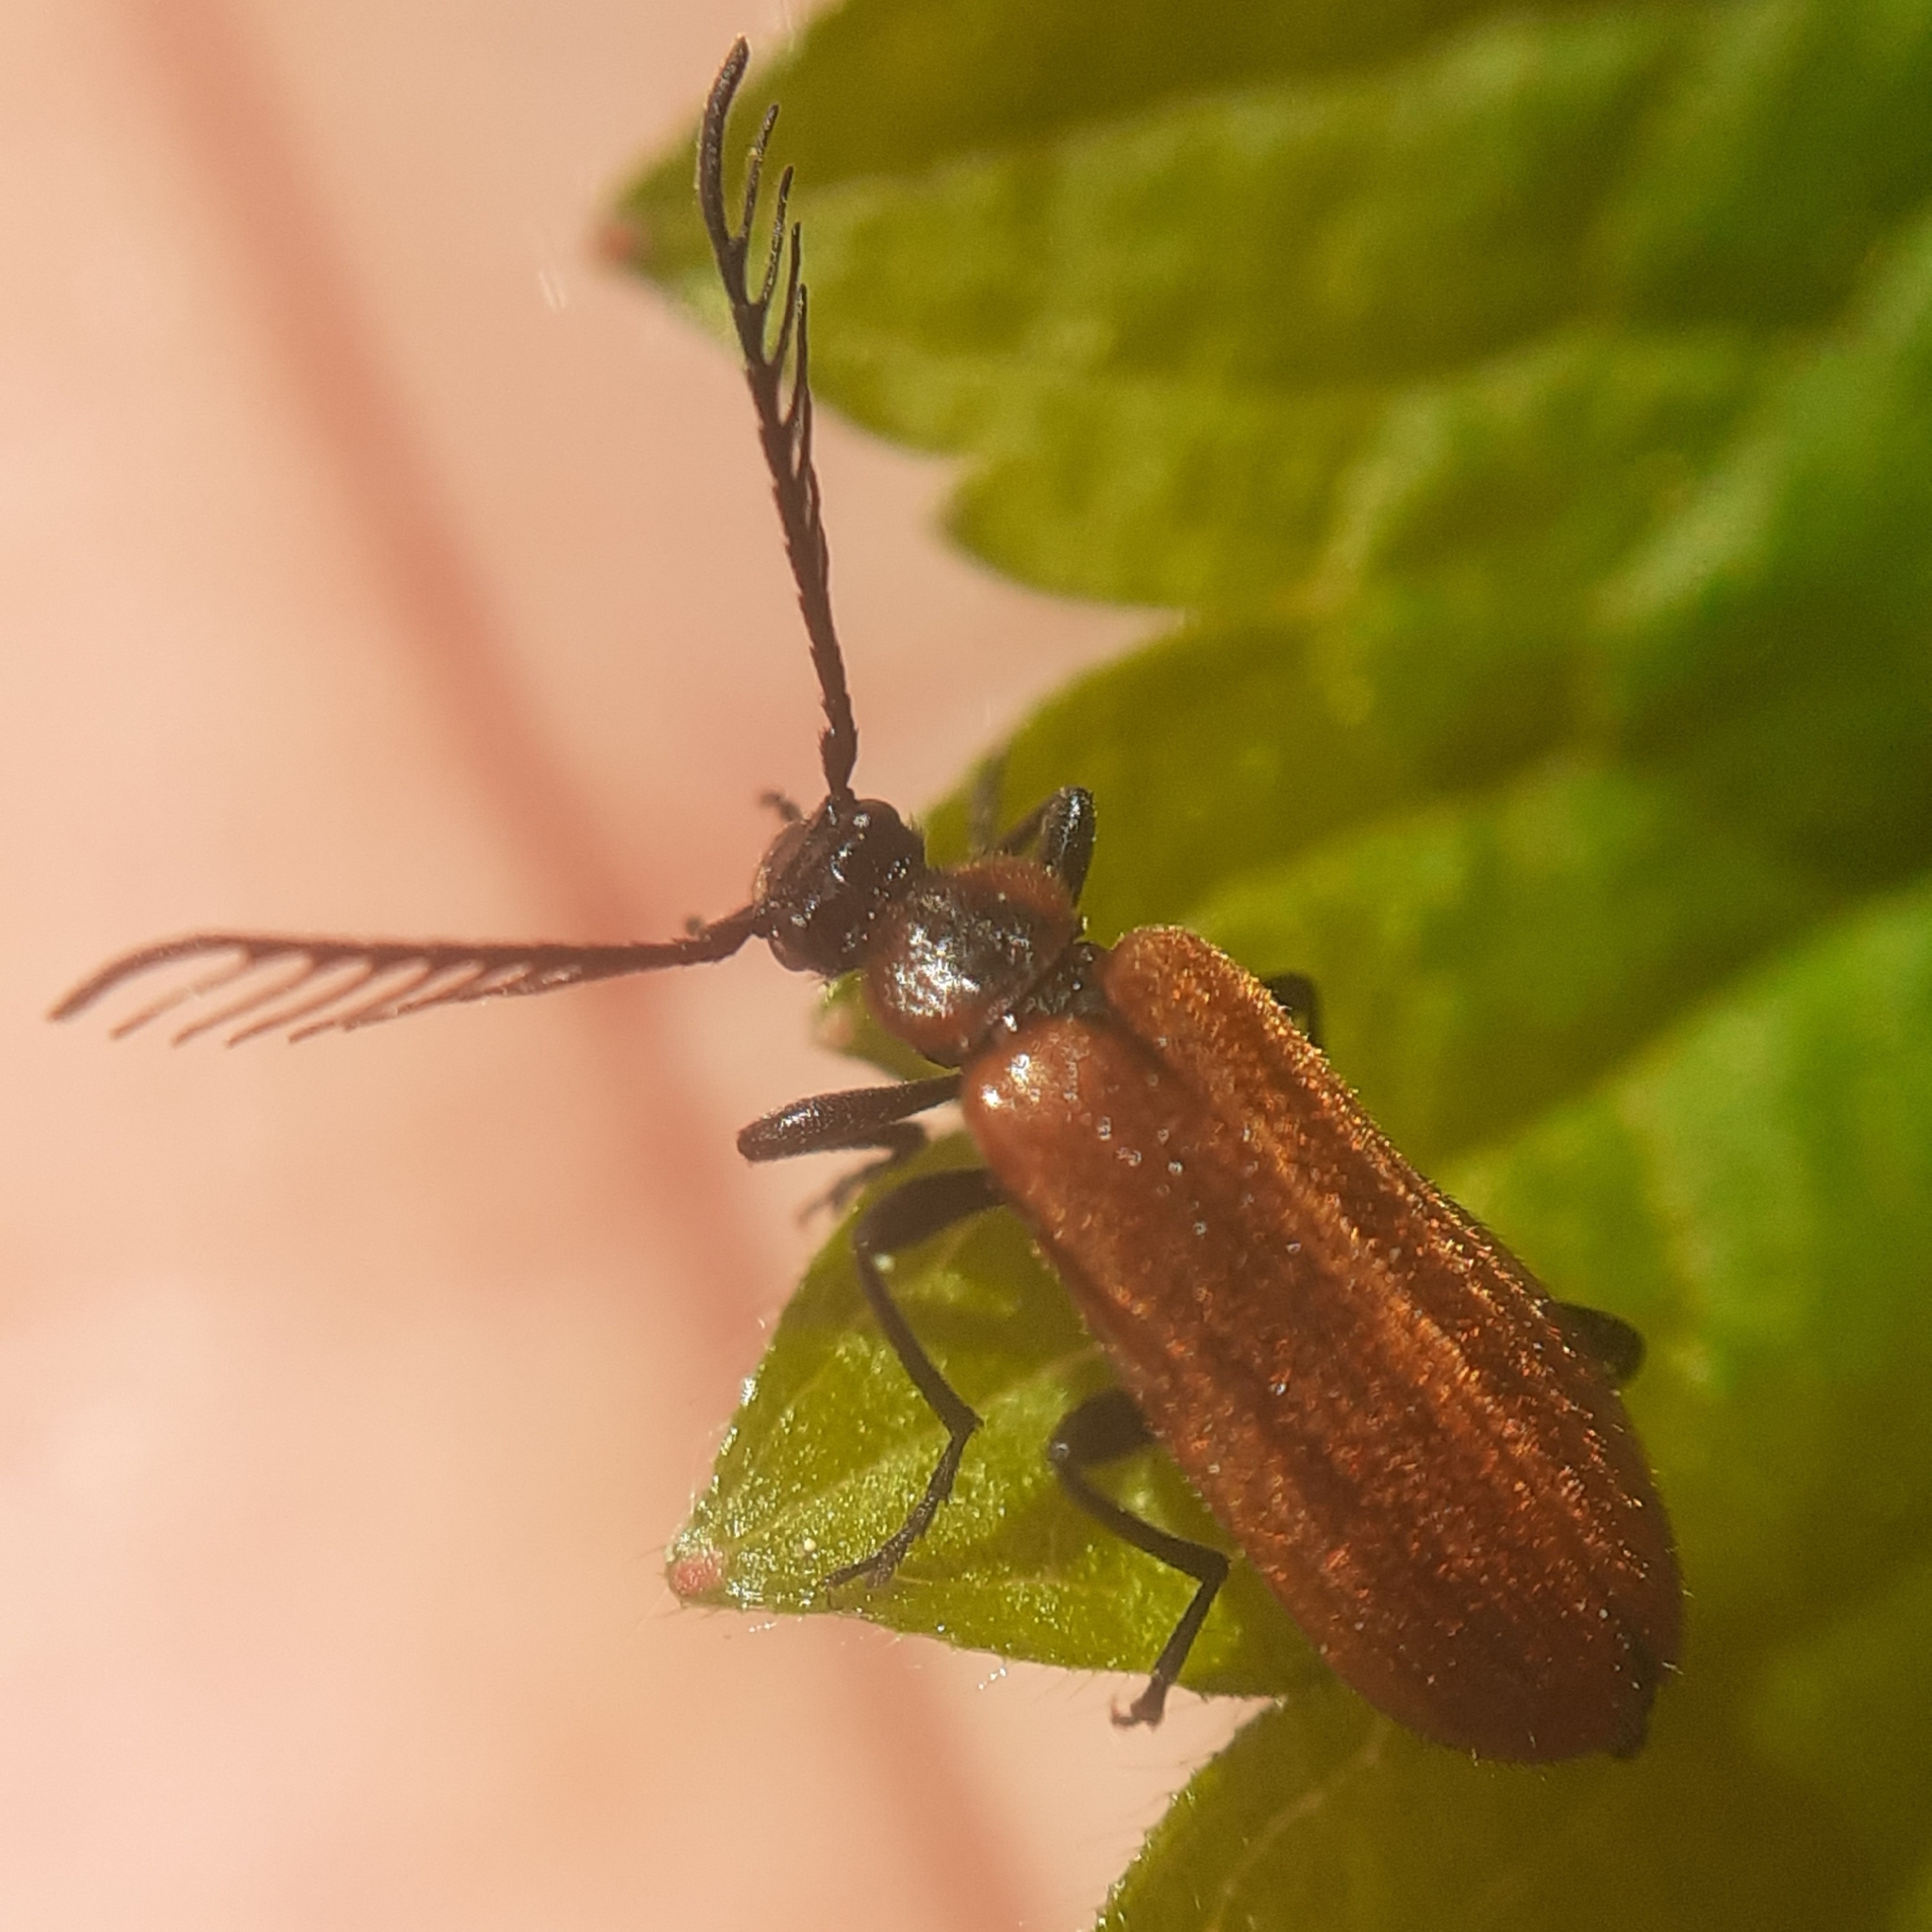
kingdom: Animalia
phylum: Arthropoda
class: Insecta
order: Coleoptera
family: Pyrochroidae
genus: Schizotus
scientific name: Schizotus pectinicornis
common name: Scarce cardinal beetle
